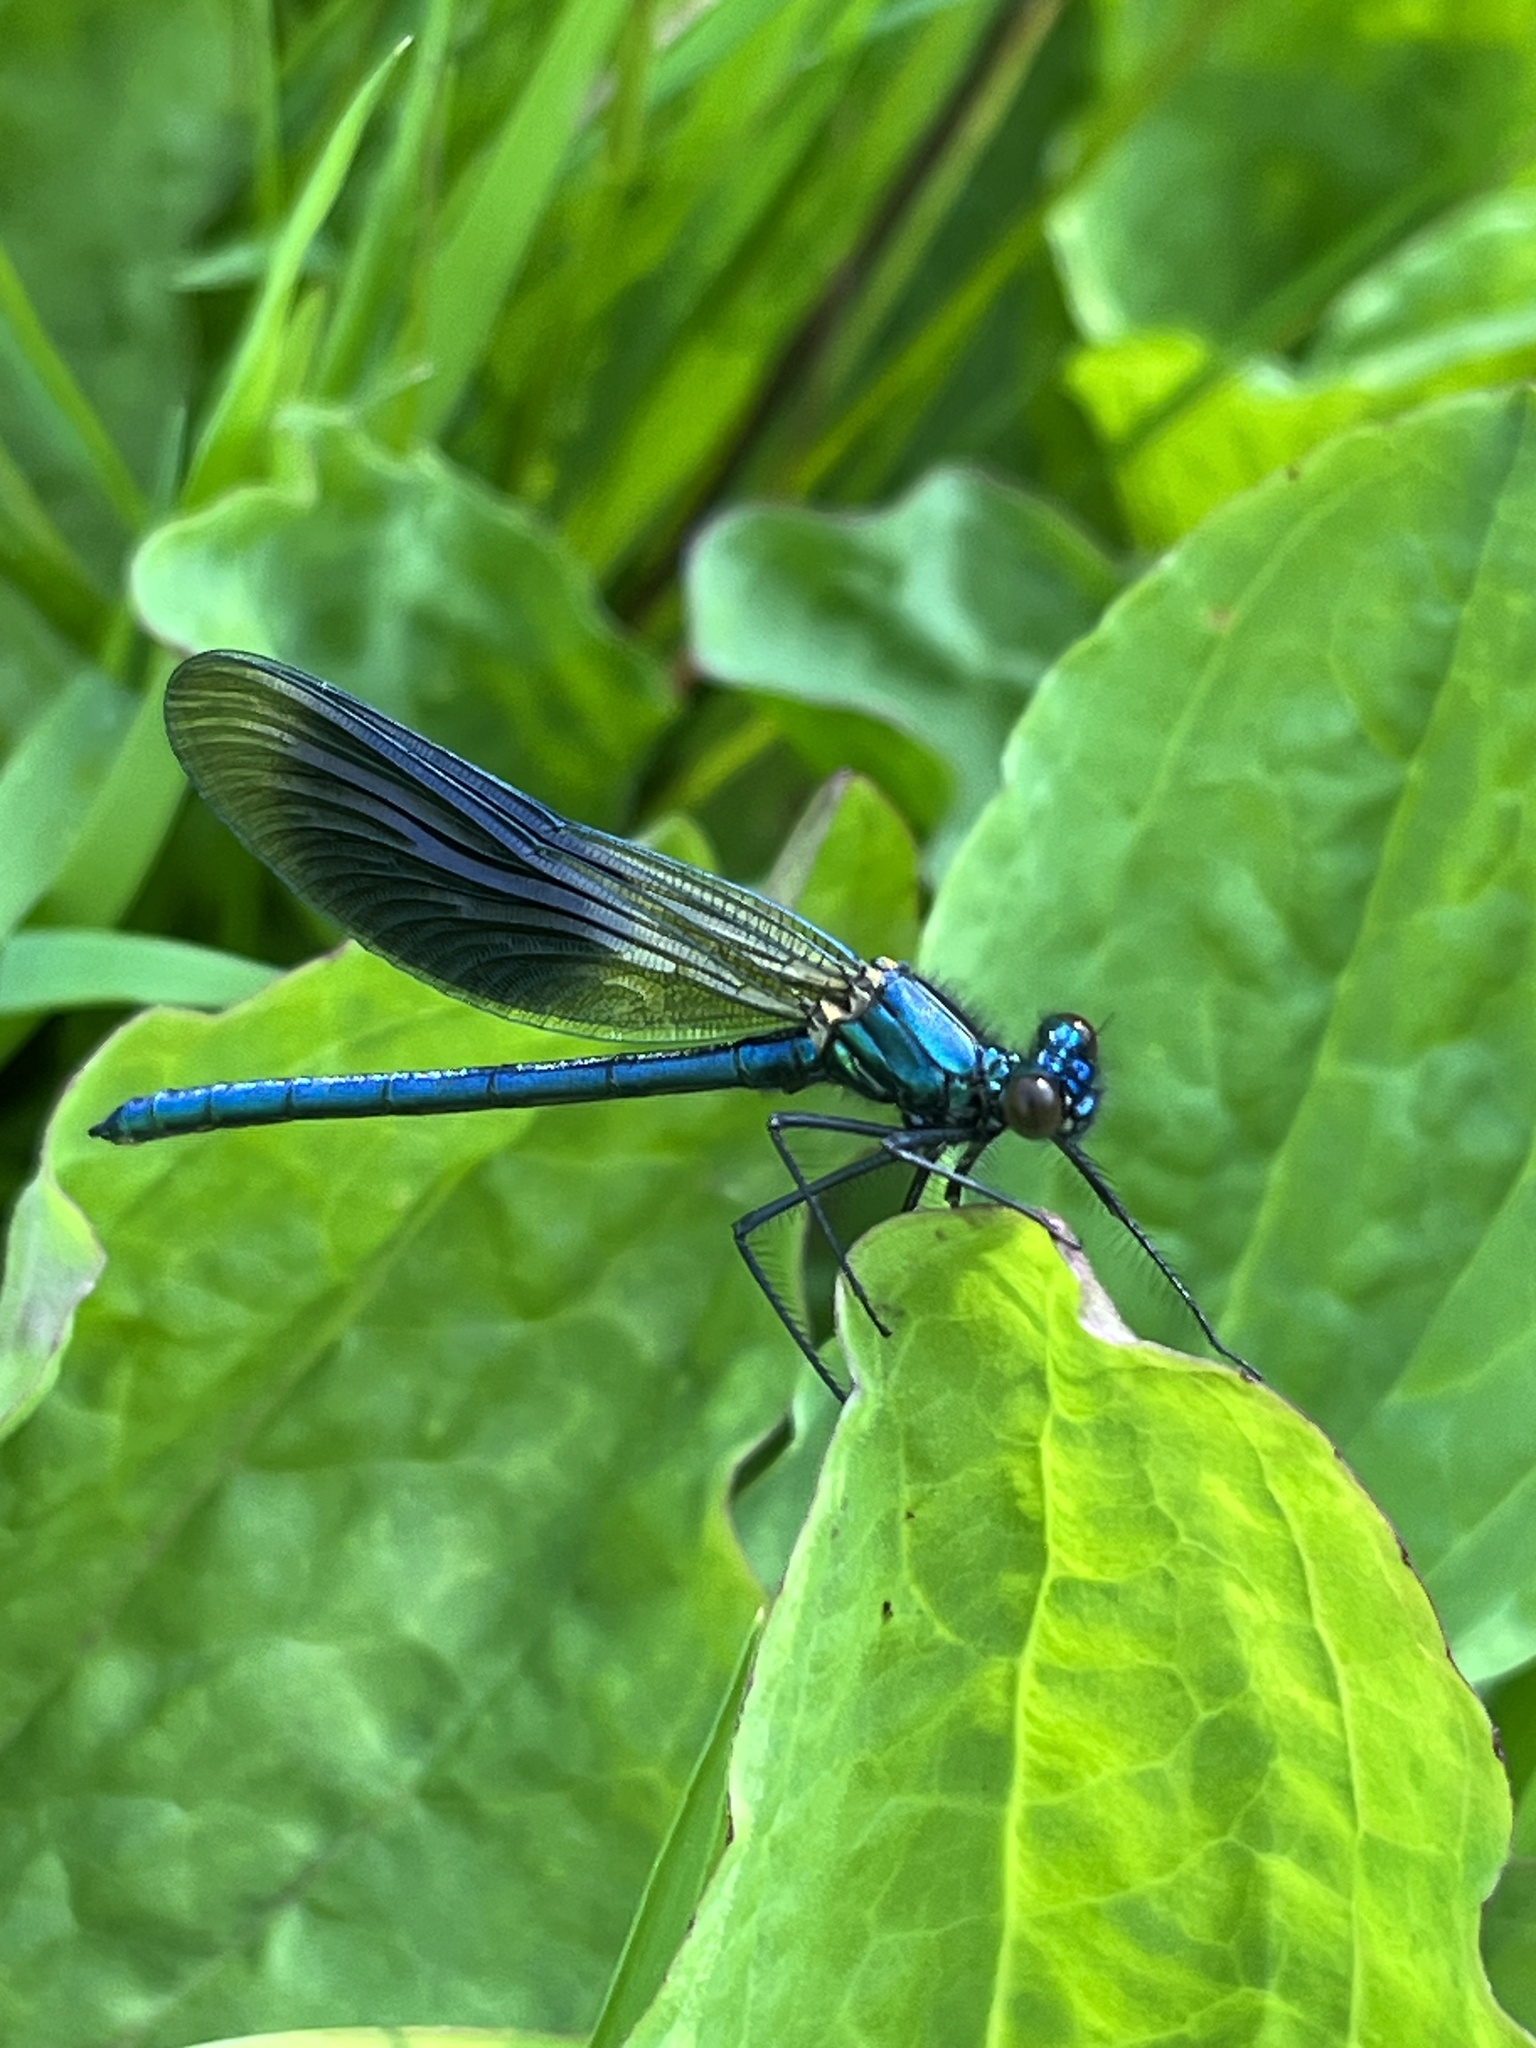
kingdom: Animalia
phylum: Arthropoda
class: Insecta
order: Odonata
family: Calopterygidae
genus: Calopteryx
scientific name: Calopteryx splendens
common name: Banded demoiselle
